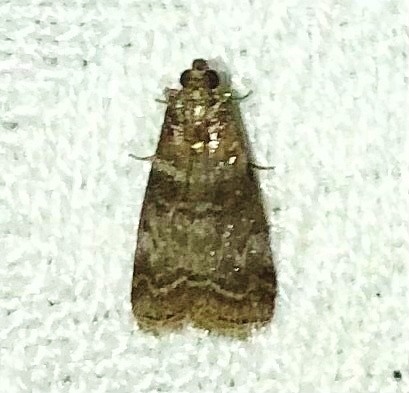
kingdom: Animalia
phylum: Arthropoda
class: Insecta
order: Lepidoptera
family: Pyralidae
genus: Sciota
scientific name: Sciota uvinella
